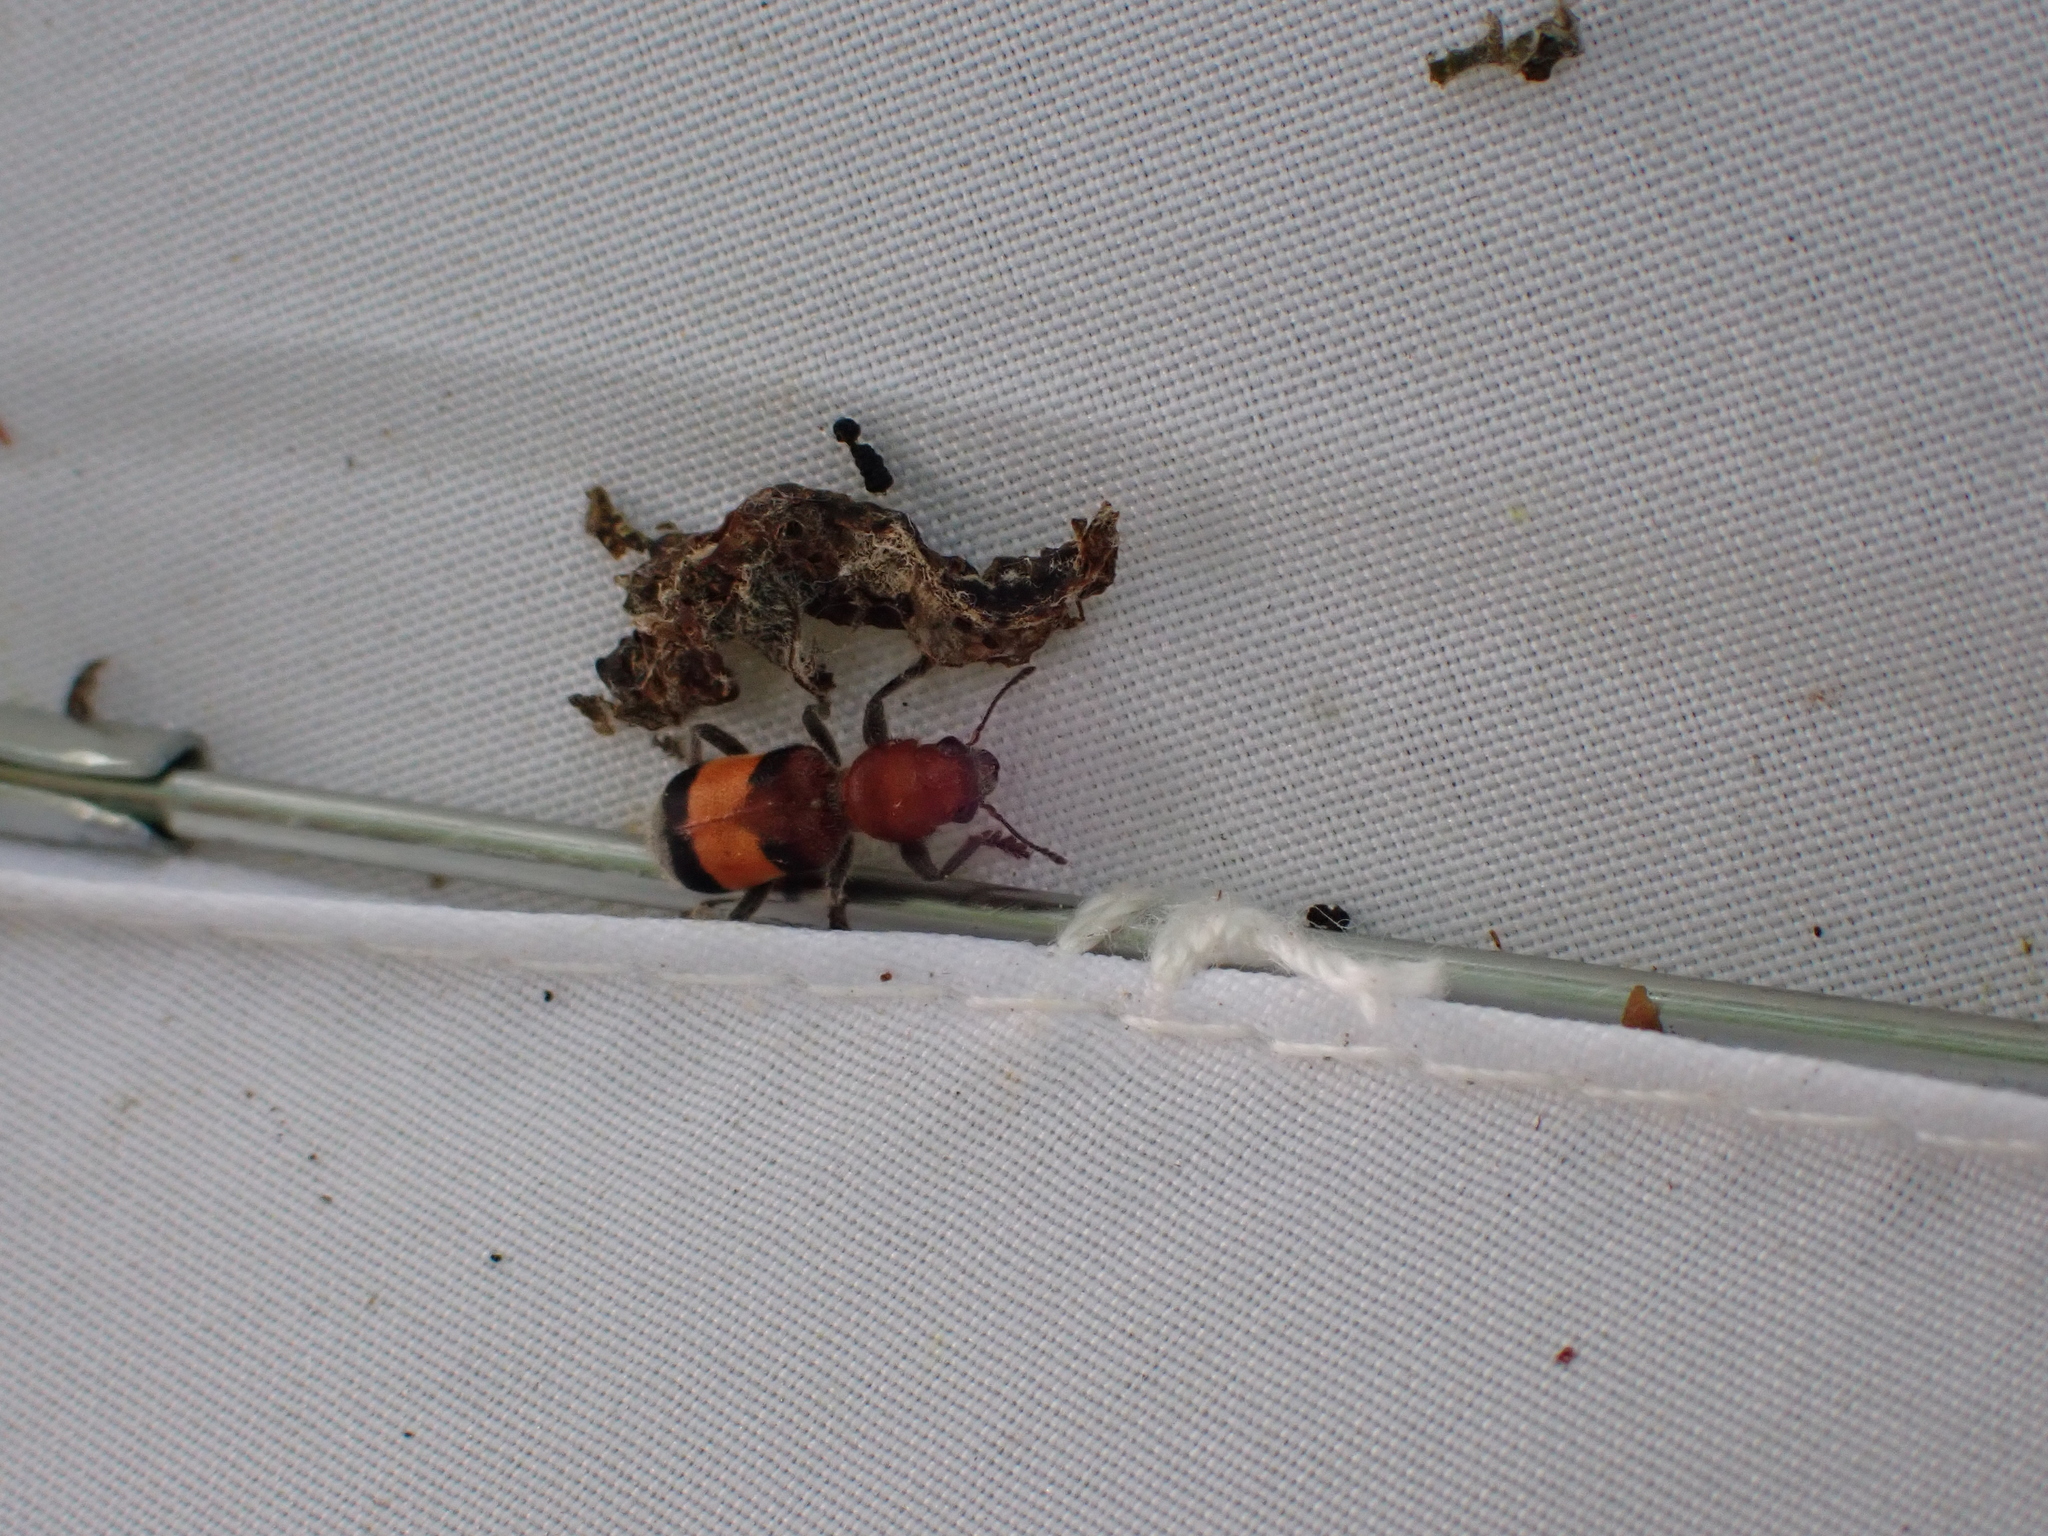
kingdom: Animalia
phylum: Arthropoda
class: Insecta
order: Coleoptera
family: Cleridae
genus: Enoclerus
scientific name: Enoclerus ichneumoneus
